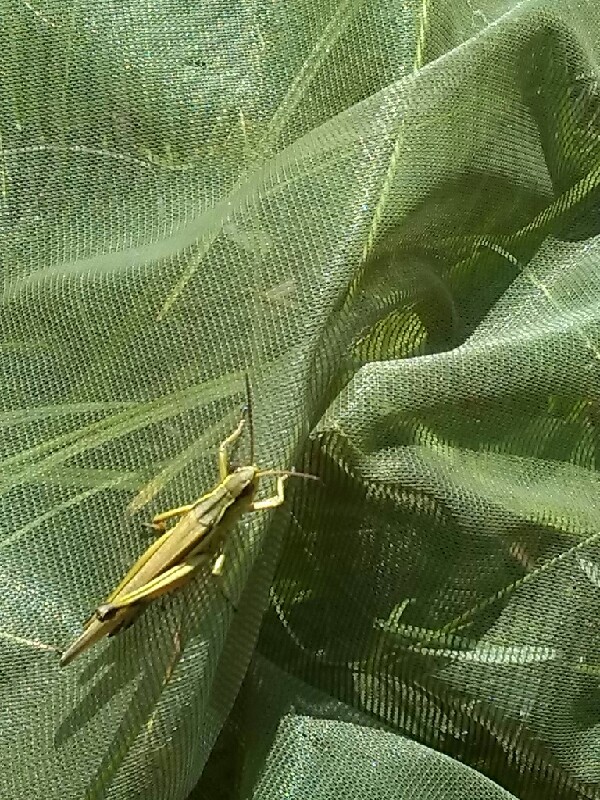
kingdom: Animalia
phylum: Arthropoda
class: Insecta
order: Orthoptera
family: Acrididae
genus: Stethophyma
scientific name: Stethophyma grossum
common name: Large marsh grasshopper
